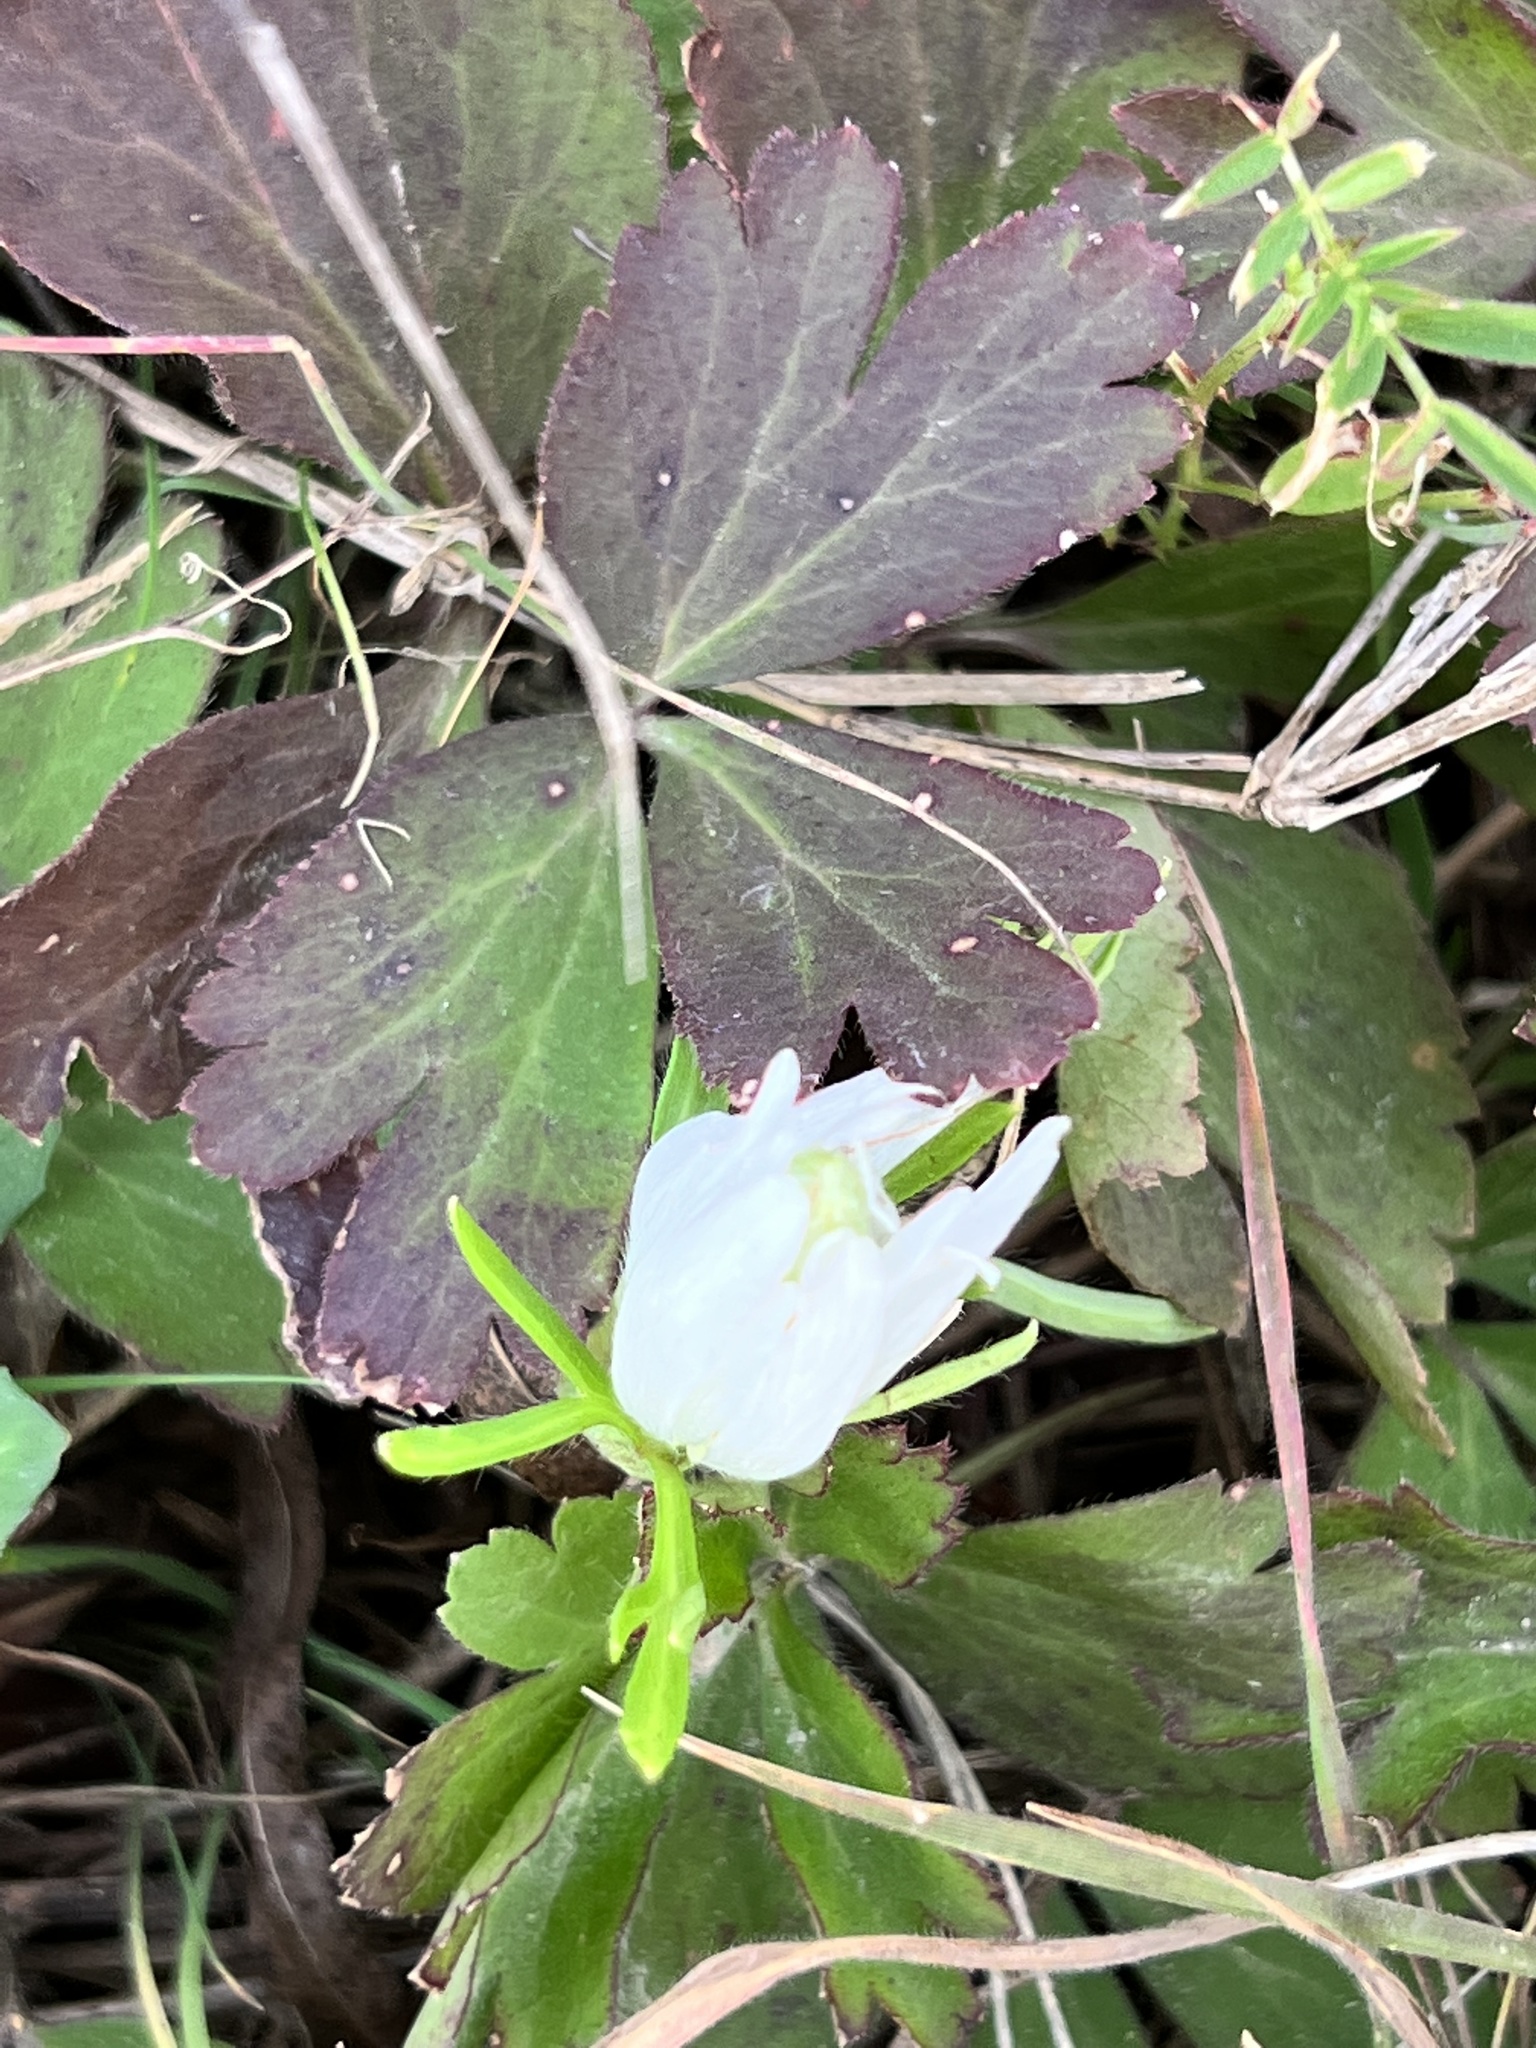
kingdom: Plantae
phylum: Tracheophyta
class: Magnoliopsida
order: Ranunculales
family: Ranunculaceae
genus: Anemone
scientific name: Anemone berlandieri
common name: Ten-petal anemone
